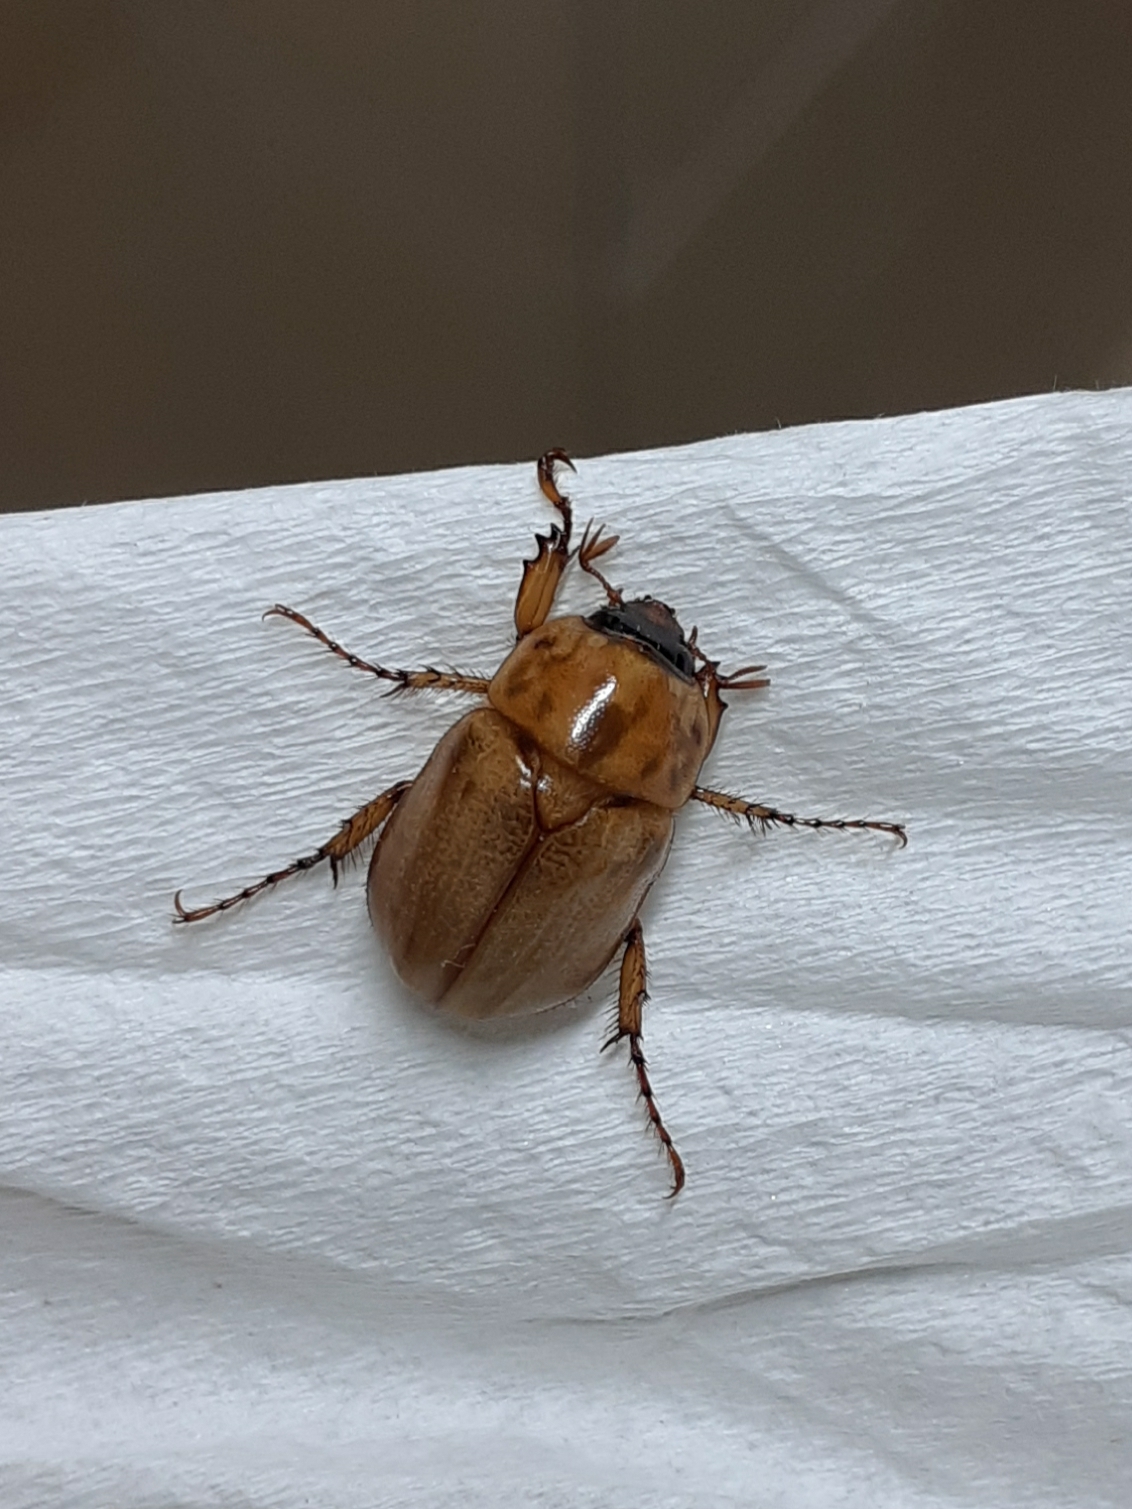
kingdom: Animalia
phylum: Arthropoda
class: Insecta
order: Coleoptera
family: Scarabaeidae
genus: Cyclocephala
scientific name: Cyclocephala signaticollis
